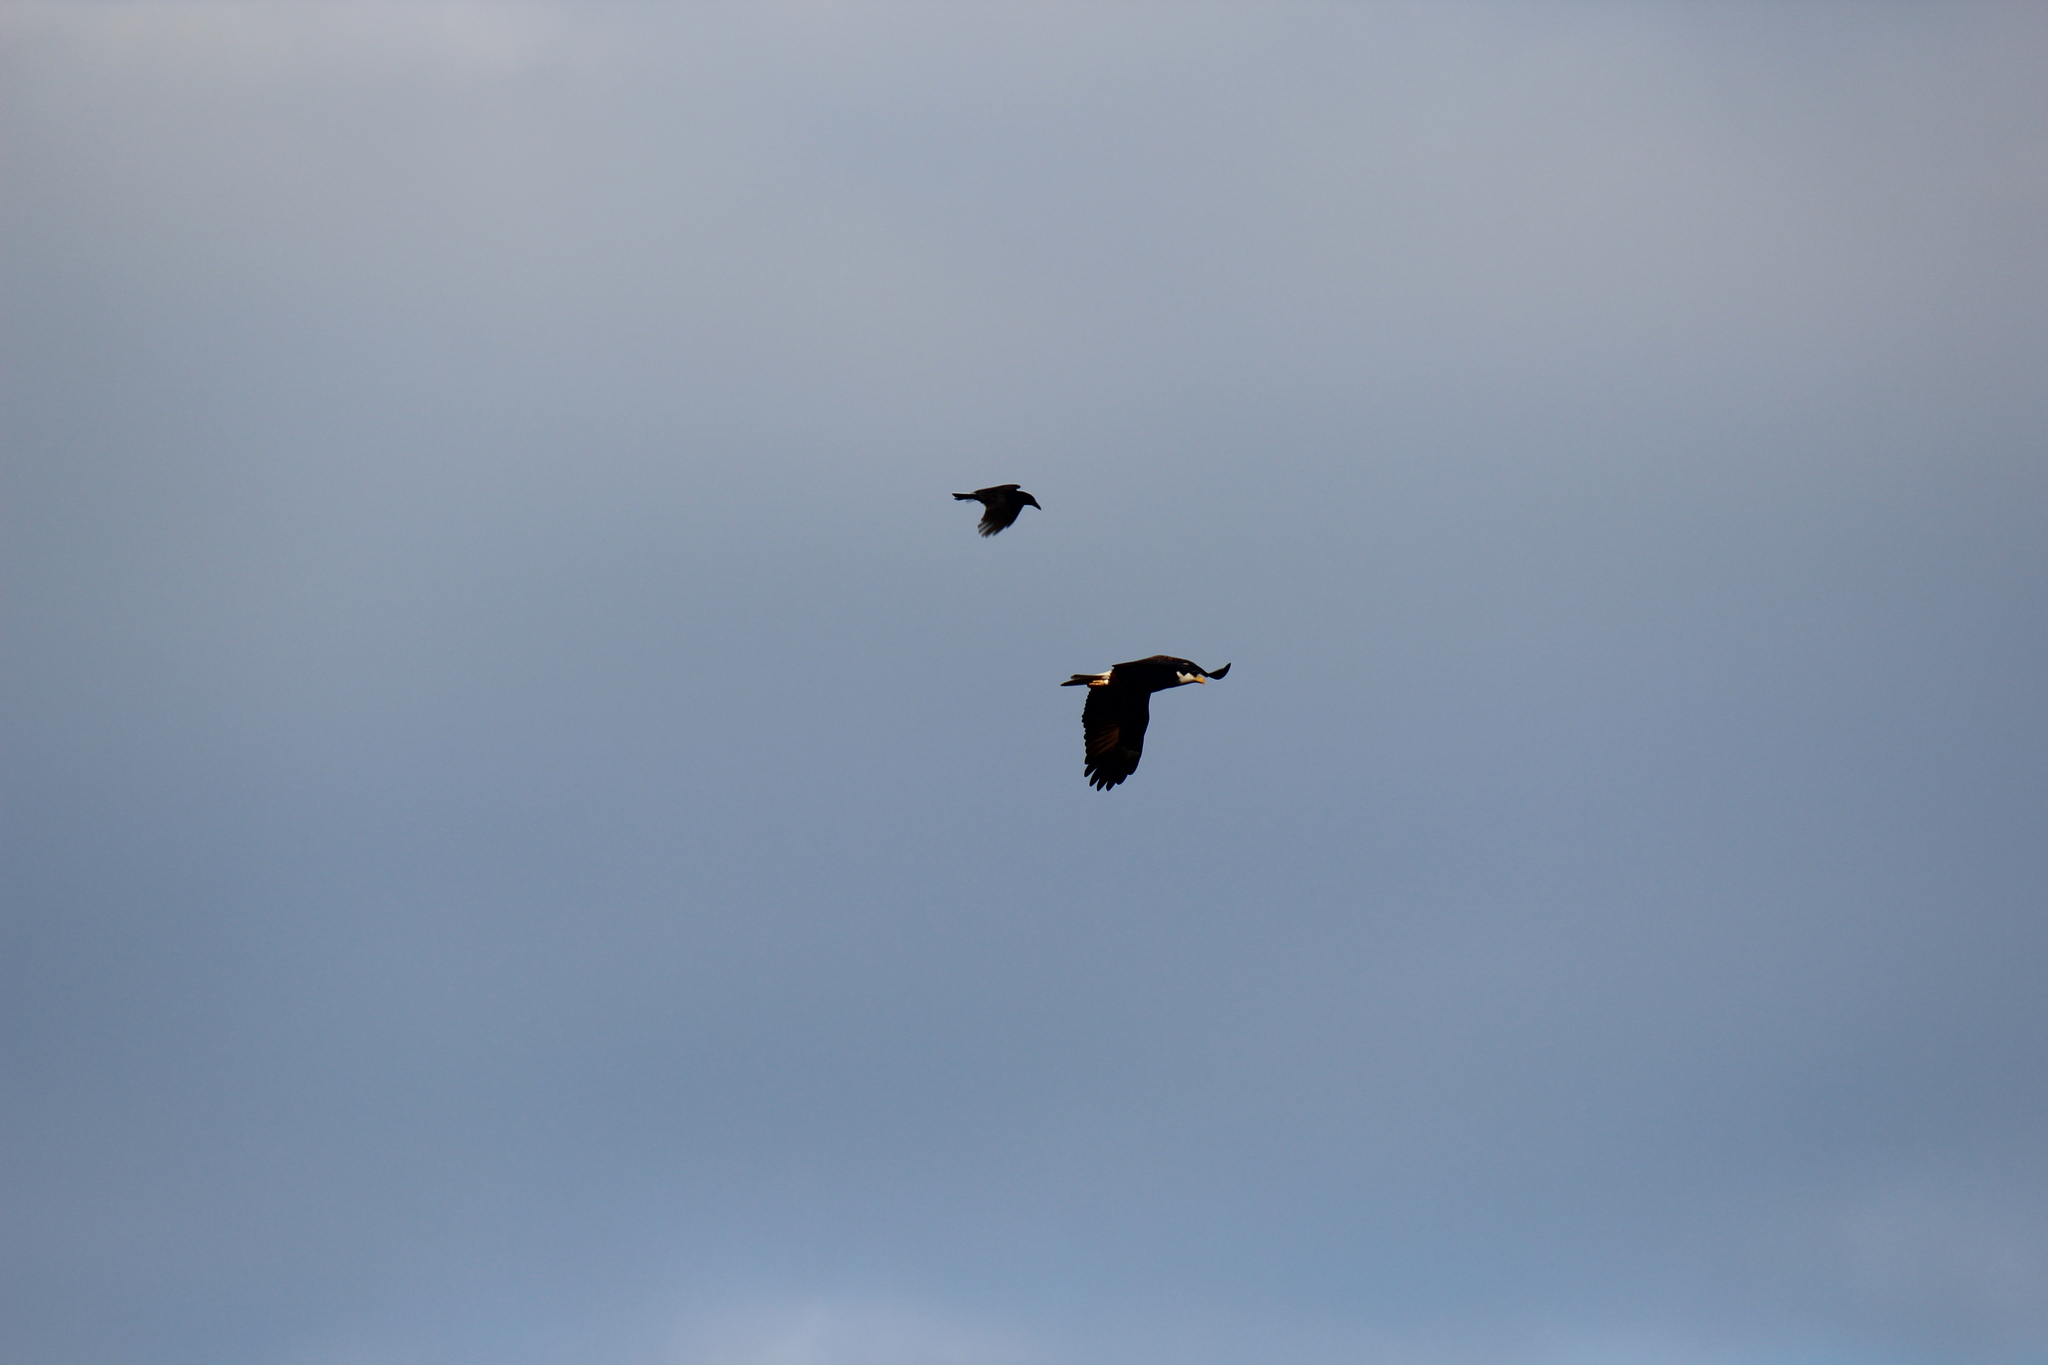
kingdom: Animalia
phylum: Chordata
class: Aves
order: Accipitriformes
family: Accipitridae
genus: Haliaeetus
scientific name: Haliaeetus leucocephalus
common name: Bald eagle
